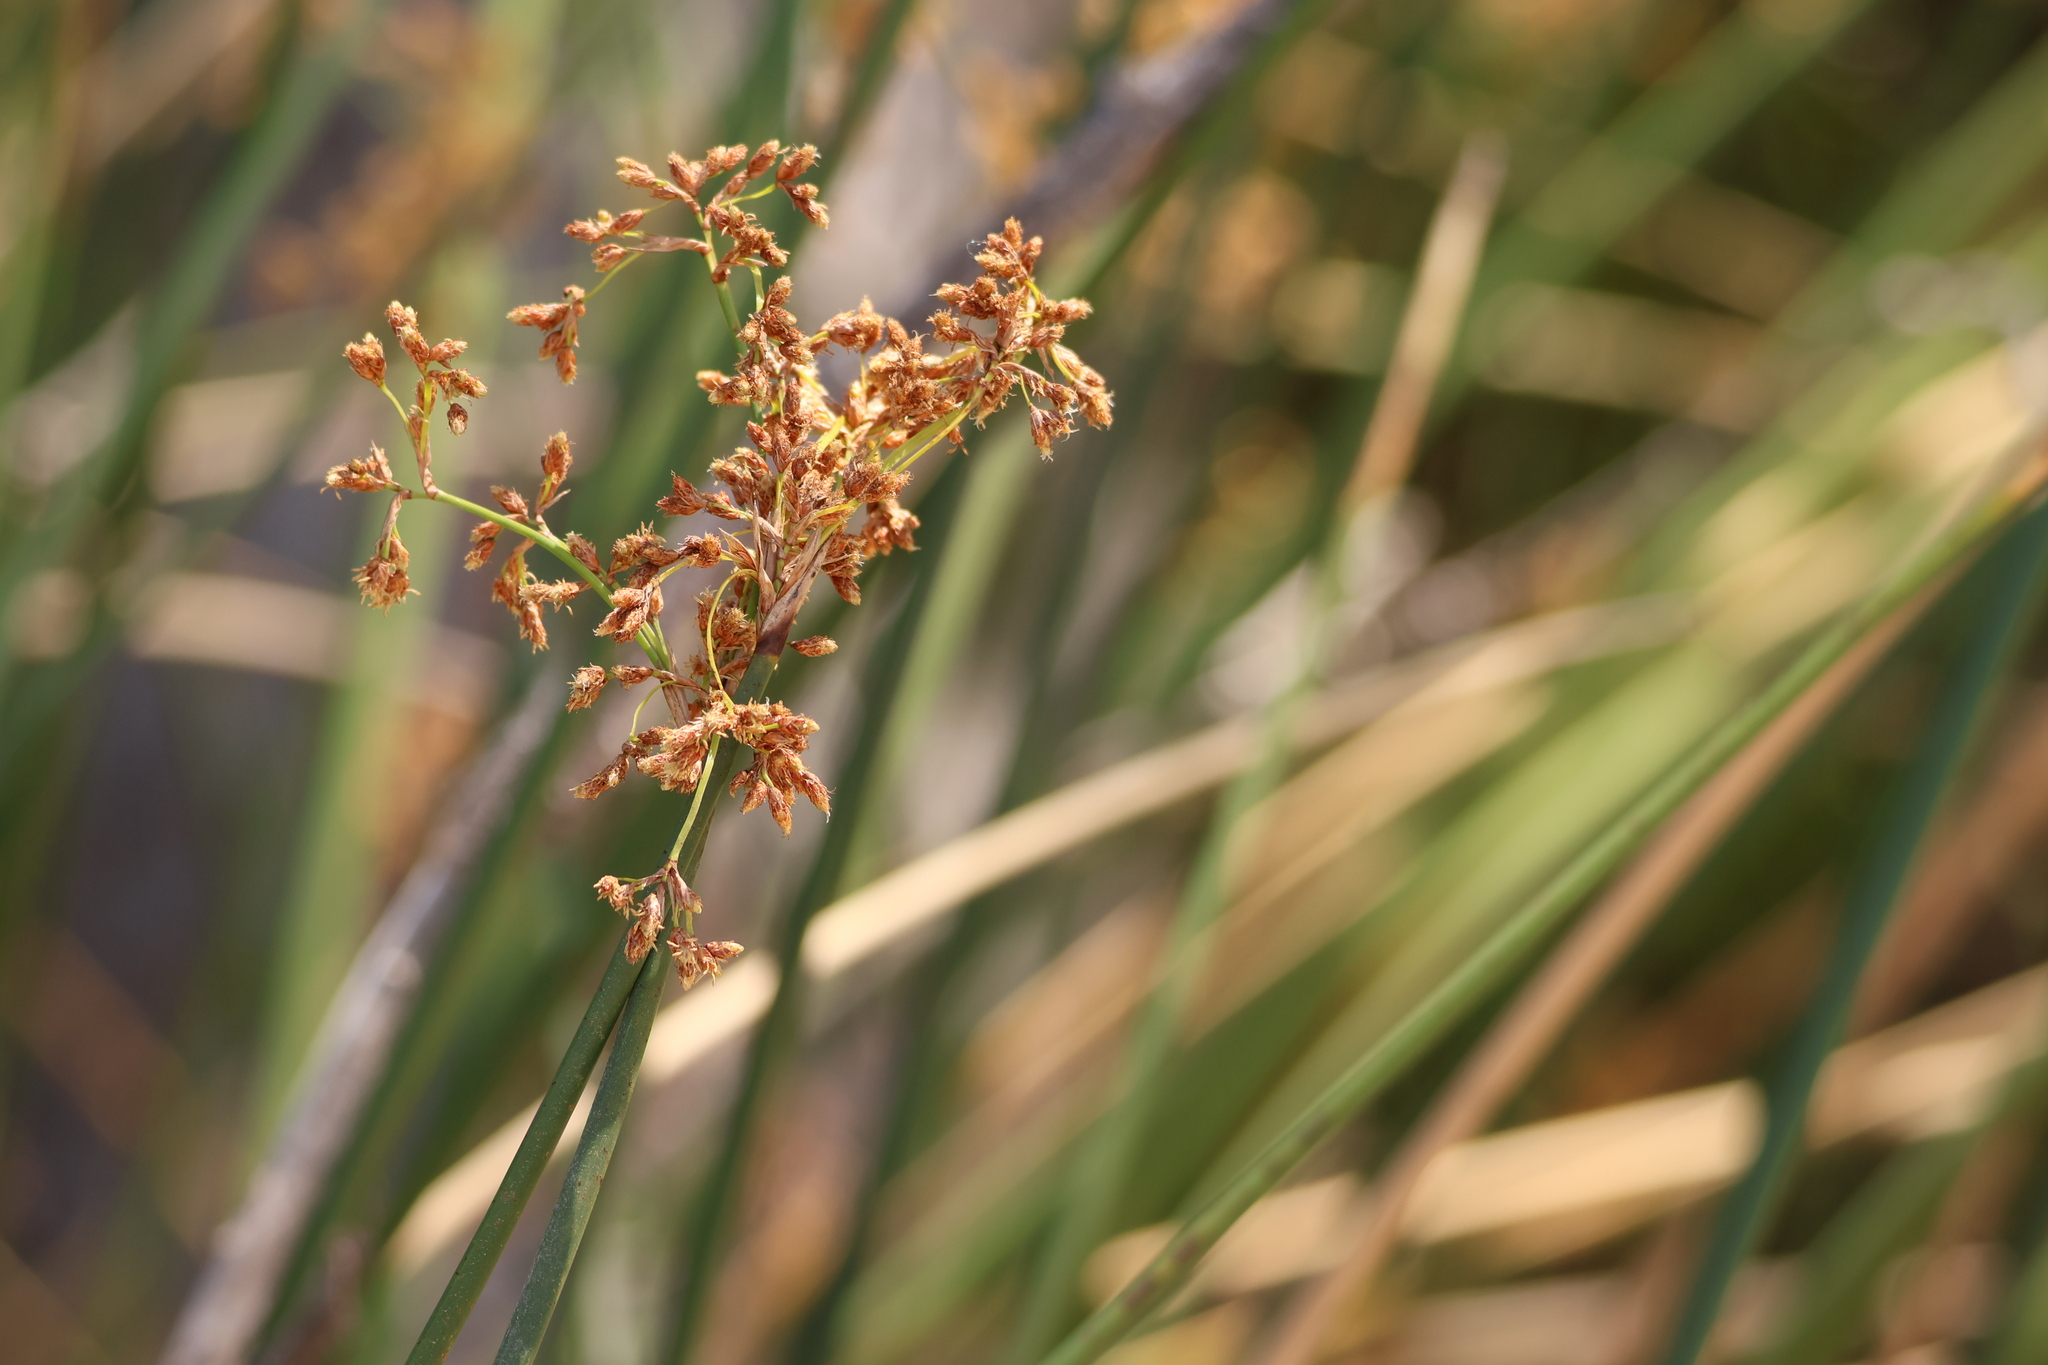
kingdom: Plantae
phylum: Tracheophyta
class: Liliopsida
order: Poales
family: Cyperaceae
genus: Schoenoplectus
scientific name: Schoenoplectus californicus
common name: California bulrush
